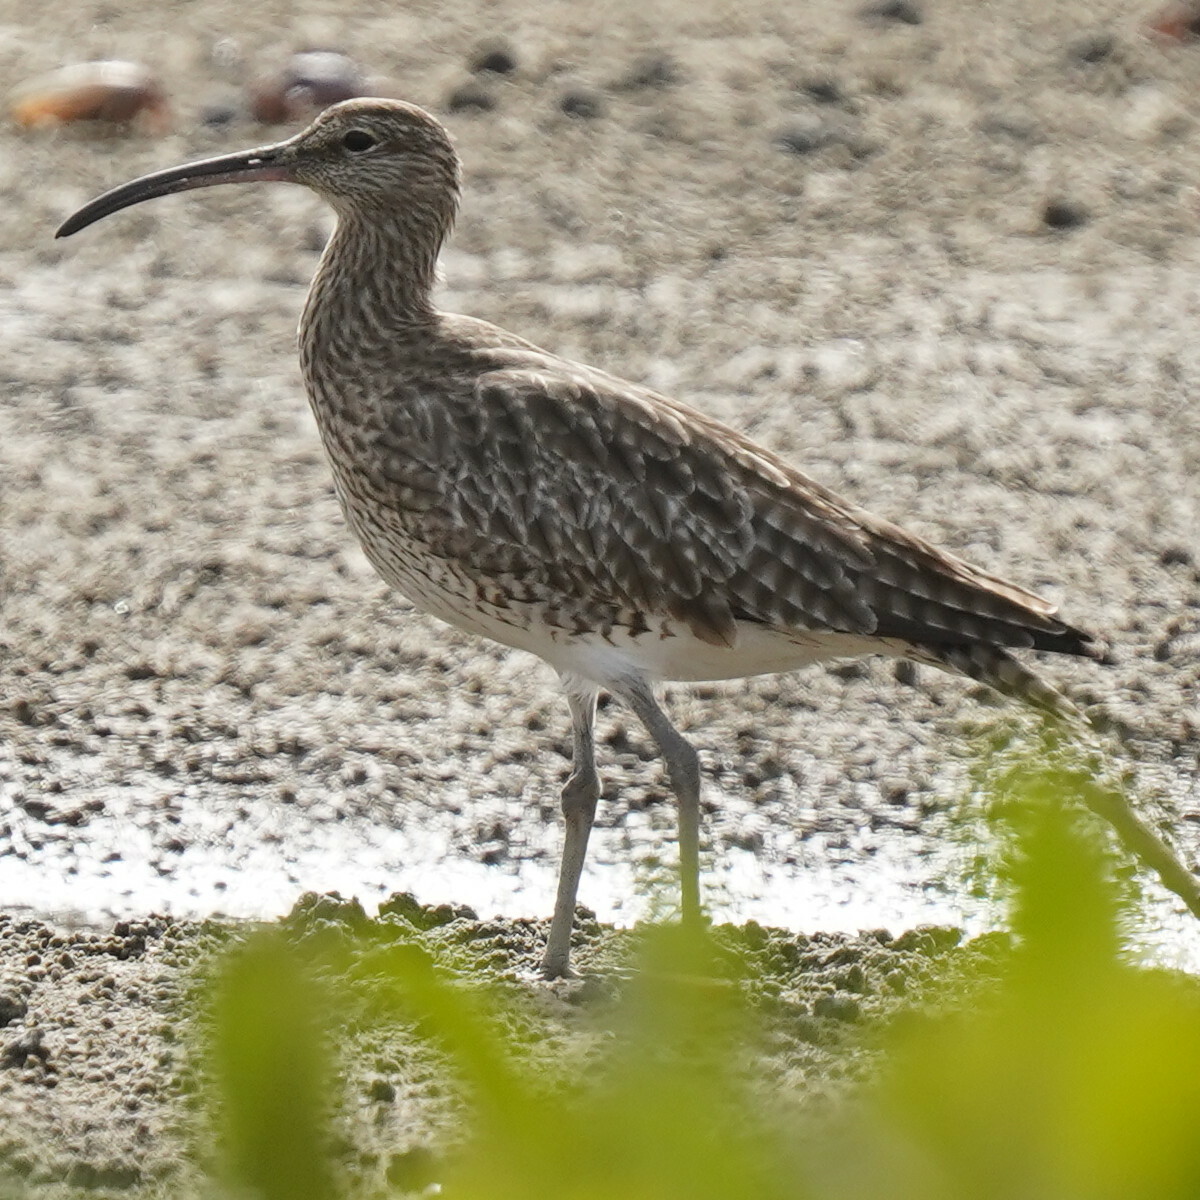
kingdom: Animalia
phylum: Chordata
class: Aves
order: Charadriiformes
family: Scolopacidae
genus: Numenius
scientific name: Numenius phaeopus
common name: Whimbrel
